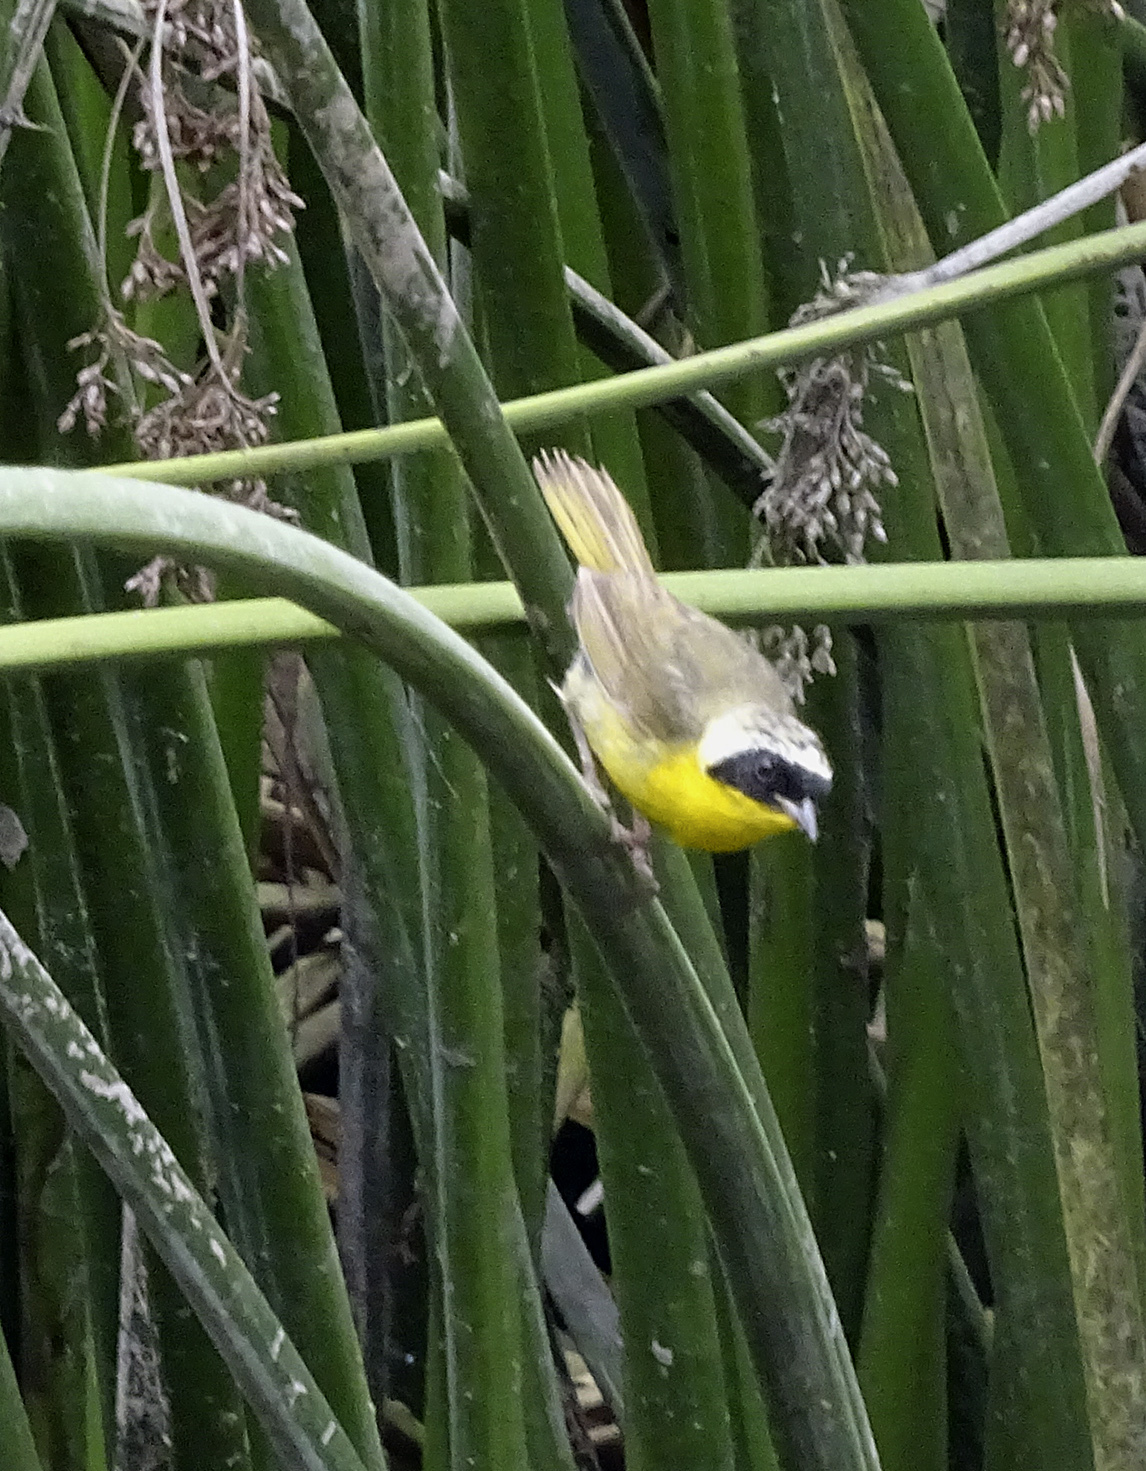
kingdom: Animalia
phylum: Chordata
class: Aves
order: Passeriformes
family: Parulidae
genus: Geothlypis
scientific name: Geothlypis trichas
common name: Common yellowthroat
